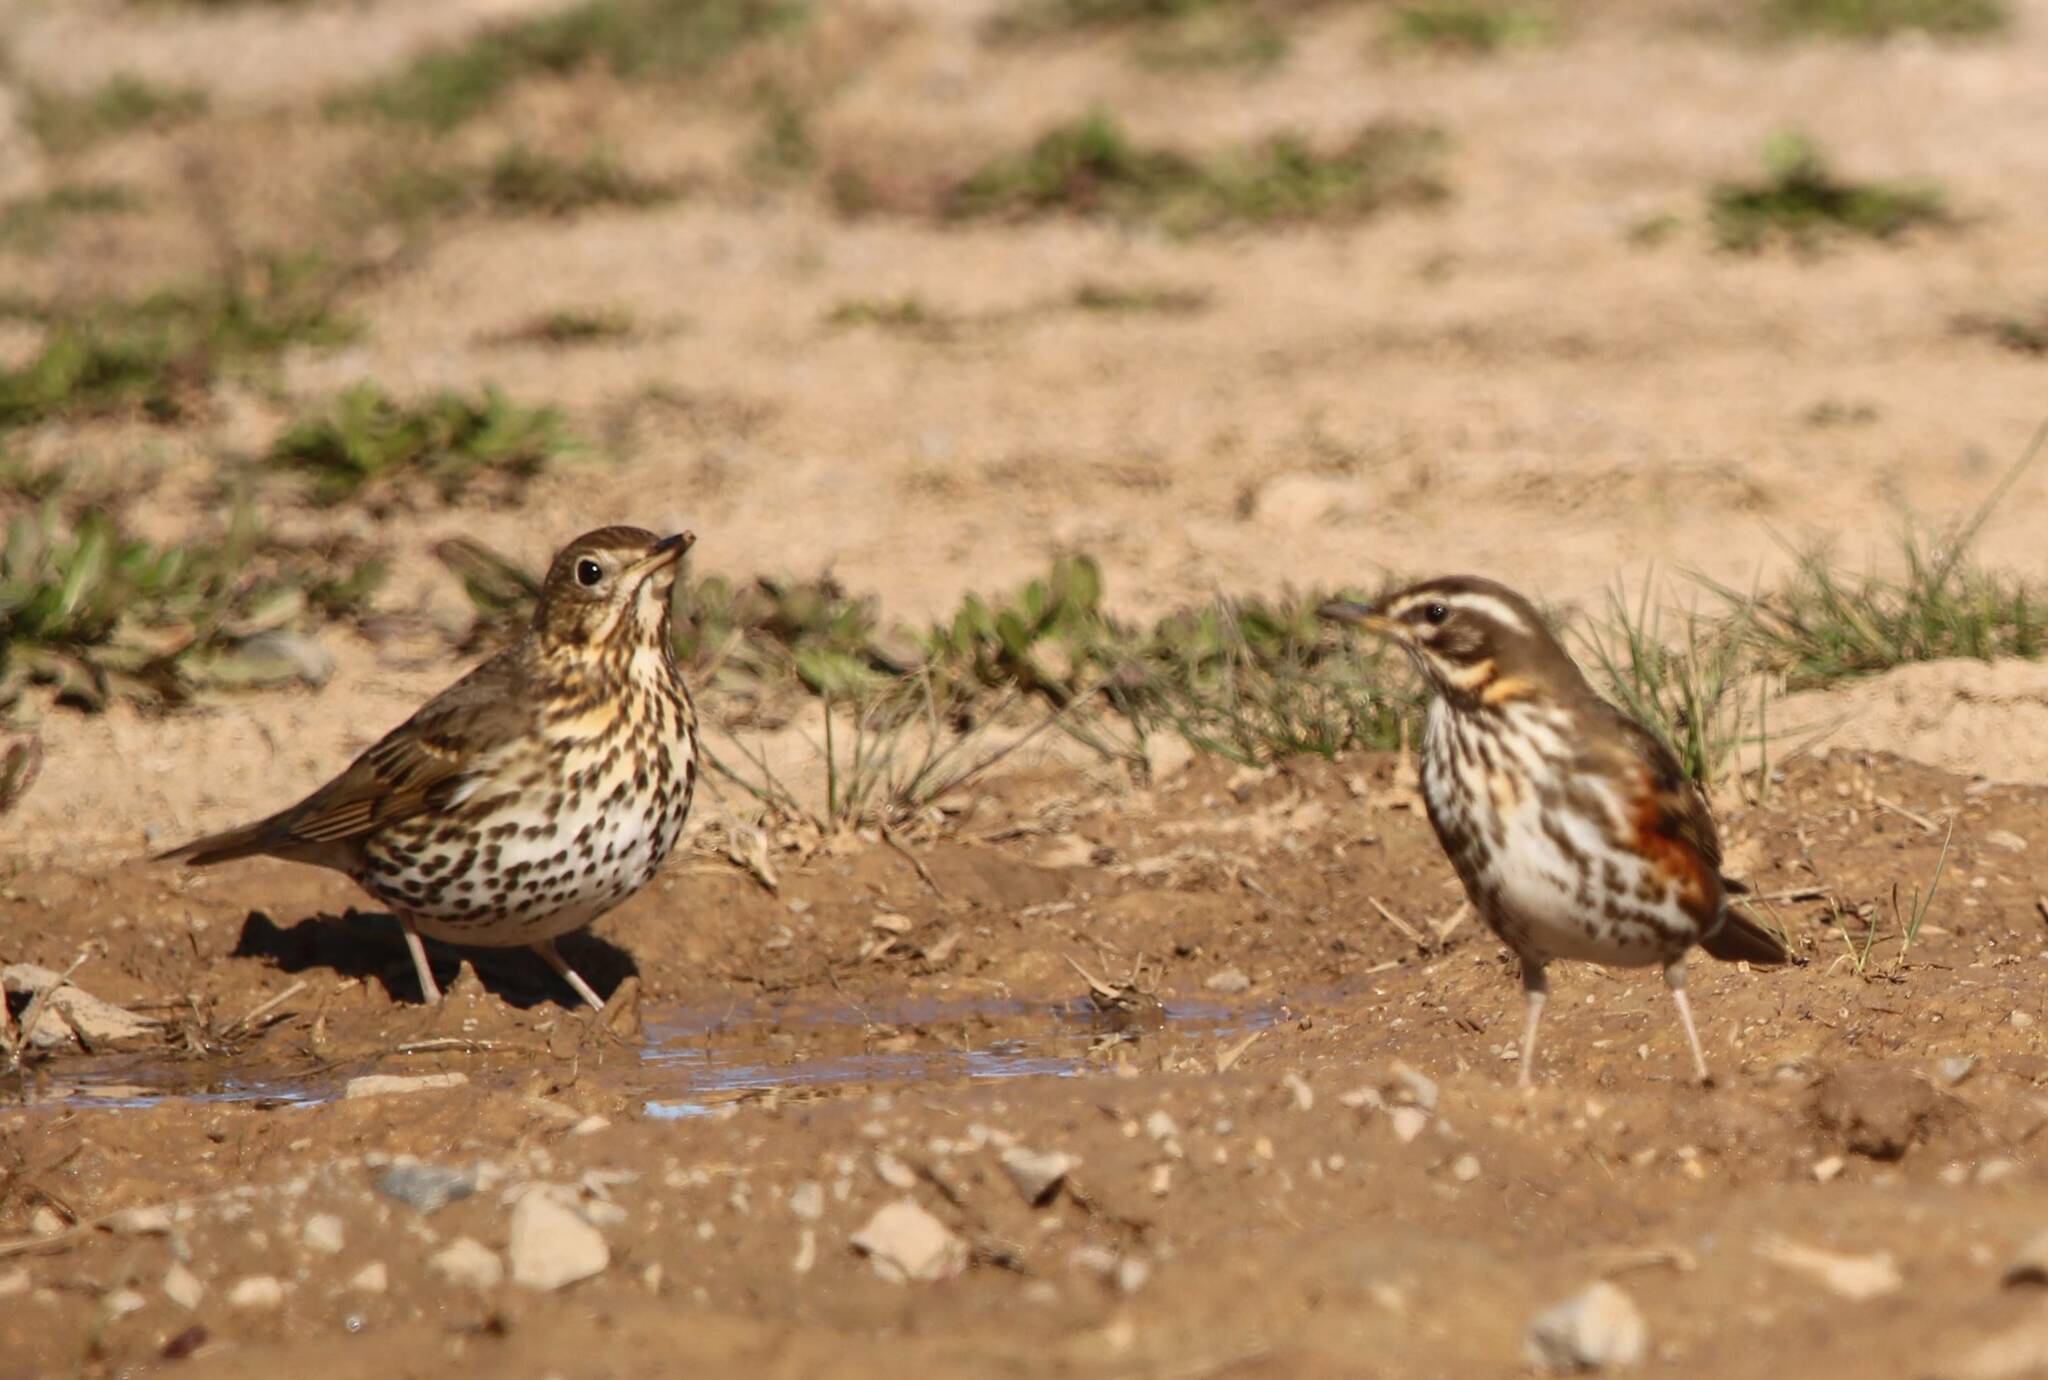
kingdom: Animalia
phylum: Chordata
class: Aves
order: Passeriformes
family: Turdidae
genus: Turdus
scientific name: Turdus philomelos
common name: Song thrush
